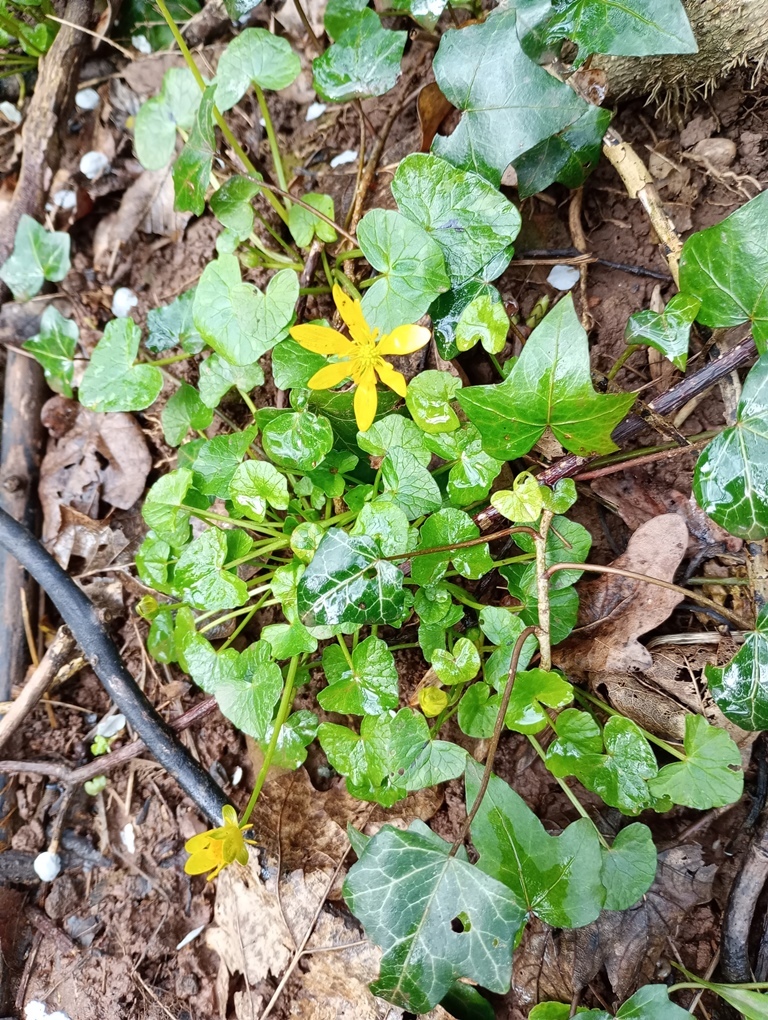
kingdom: Plantae
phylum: Tracheophyta
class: Magnoliopsida
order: Ranunculales
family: Ranunculaceae
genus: Ficaria
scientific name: Ficaria verna
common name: Lesser celandine
